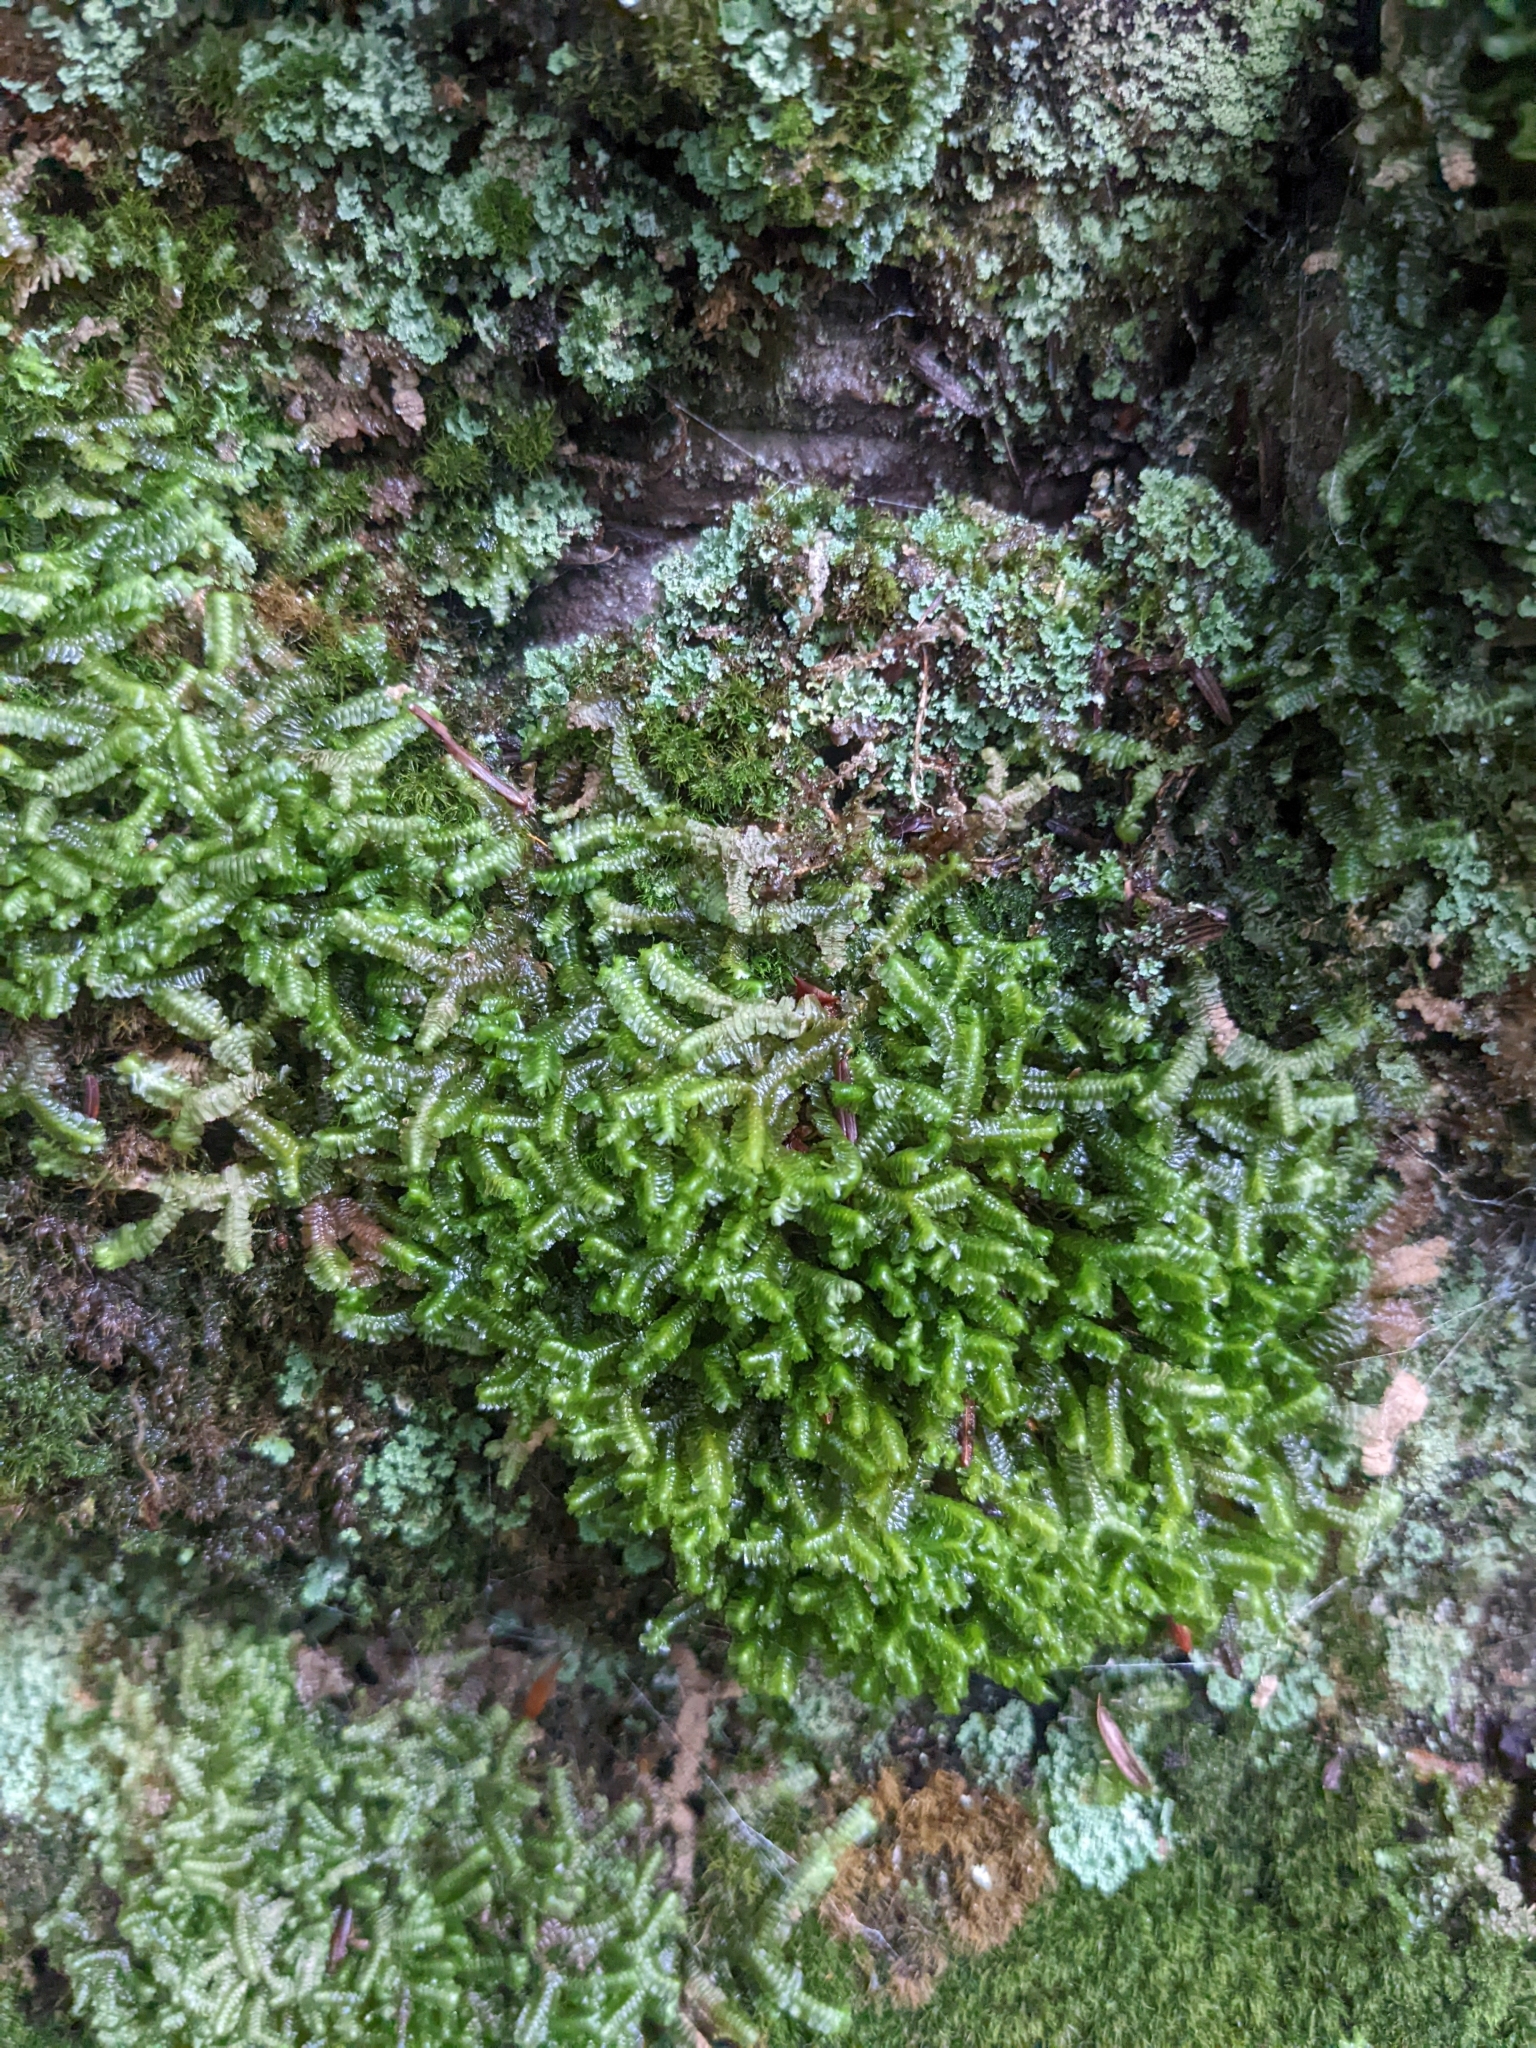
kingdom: Plantae
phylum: Marchantiophyta
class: Jungermanniopsida
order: Jungermanniales
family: Lepidoziaceae
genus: Bazzania
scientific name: Bazzania trilobata
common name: Three-lobed whipwort
